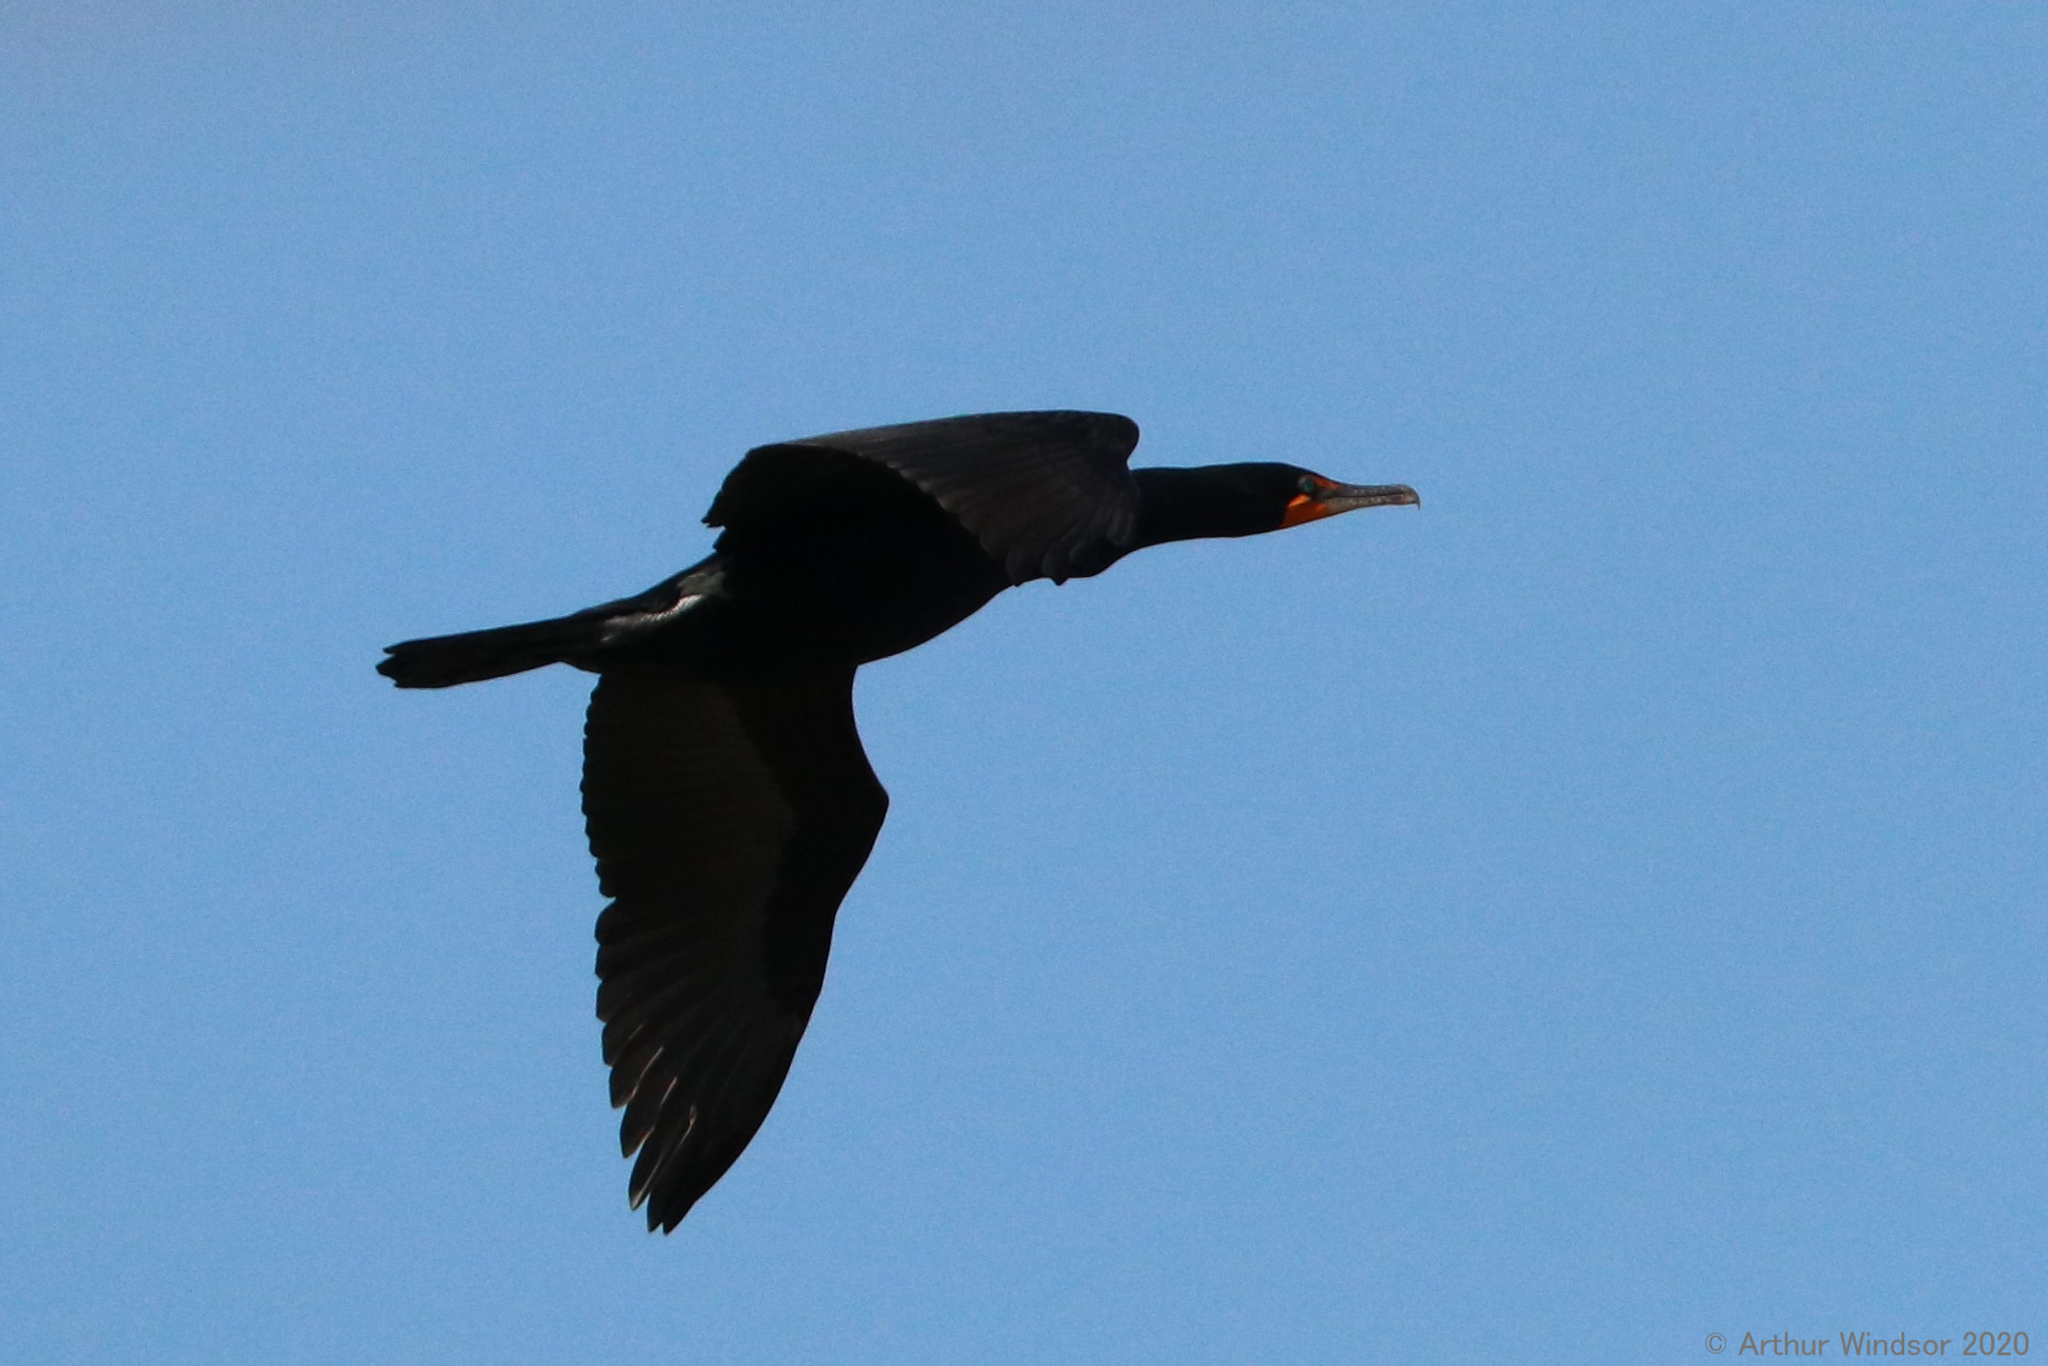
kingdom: Animalia
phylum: Chordata
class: Aves
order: Suliformes
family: Phalacrocoracidae
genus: Phalacrocorax
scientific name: Phalacrocorax auritus
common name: Double-crested cormorant
